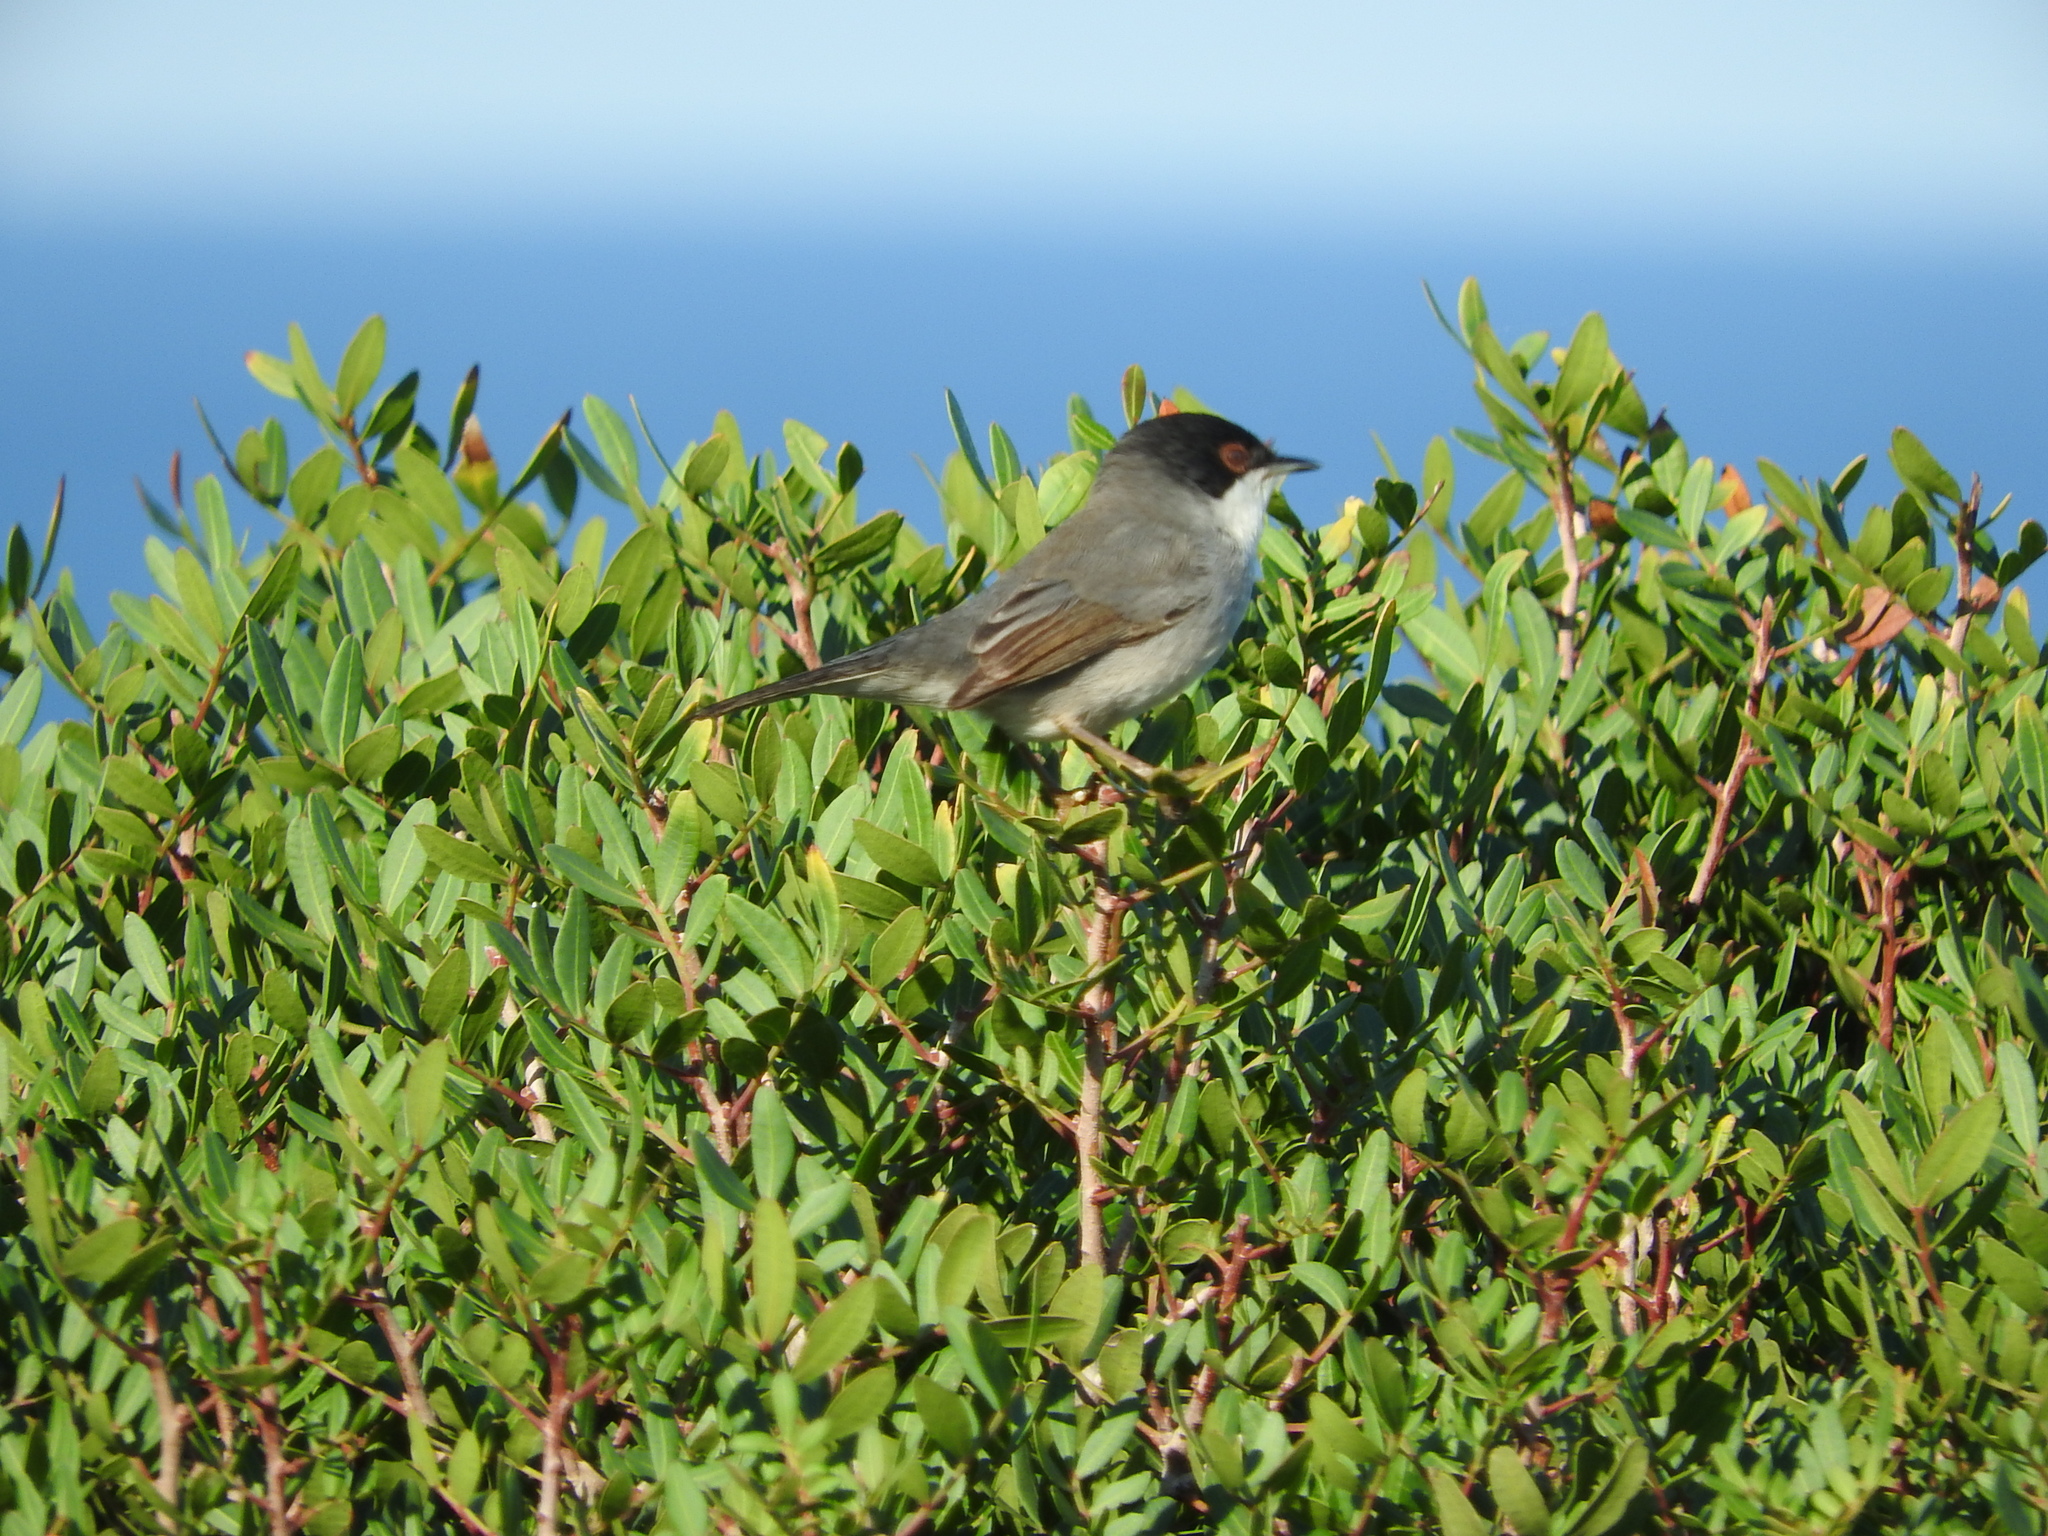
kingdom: Animalia
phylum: Chordata
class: Aves
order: Passeriformes
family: Sylviidae
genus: Curruca
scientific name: Curruca melanocephala
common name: Sardinian warbler
